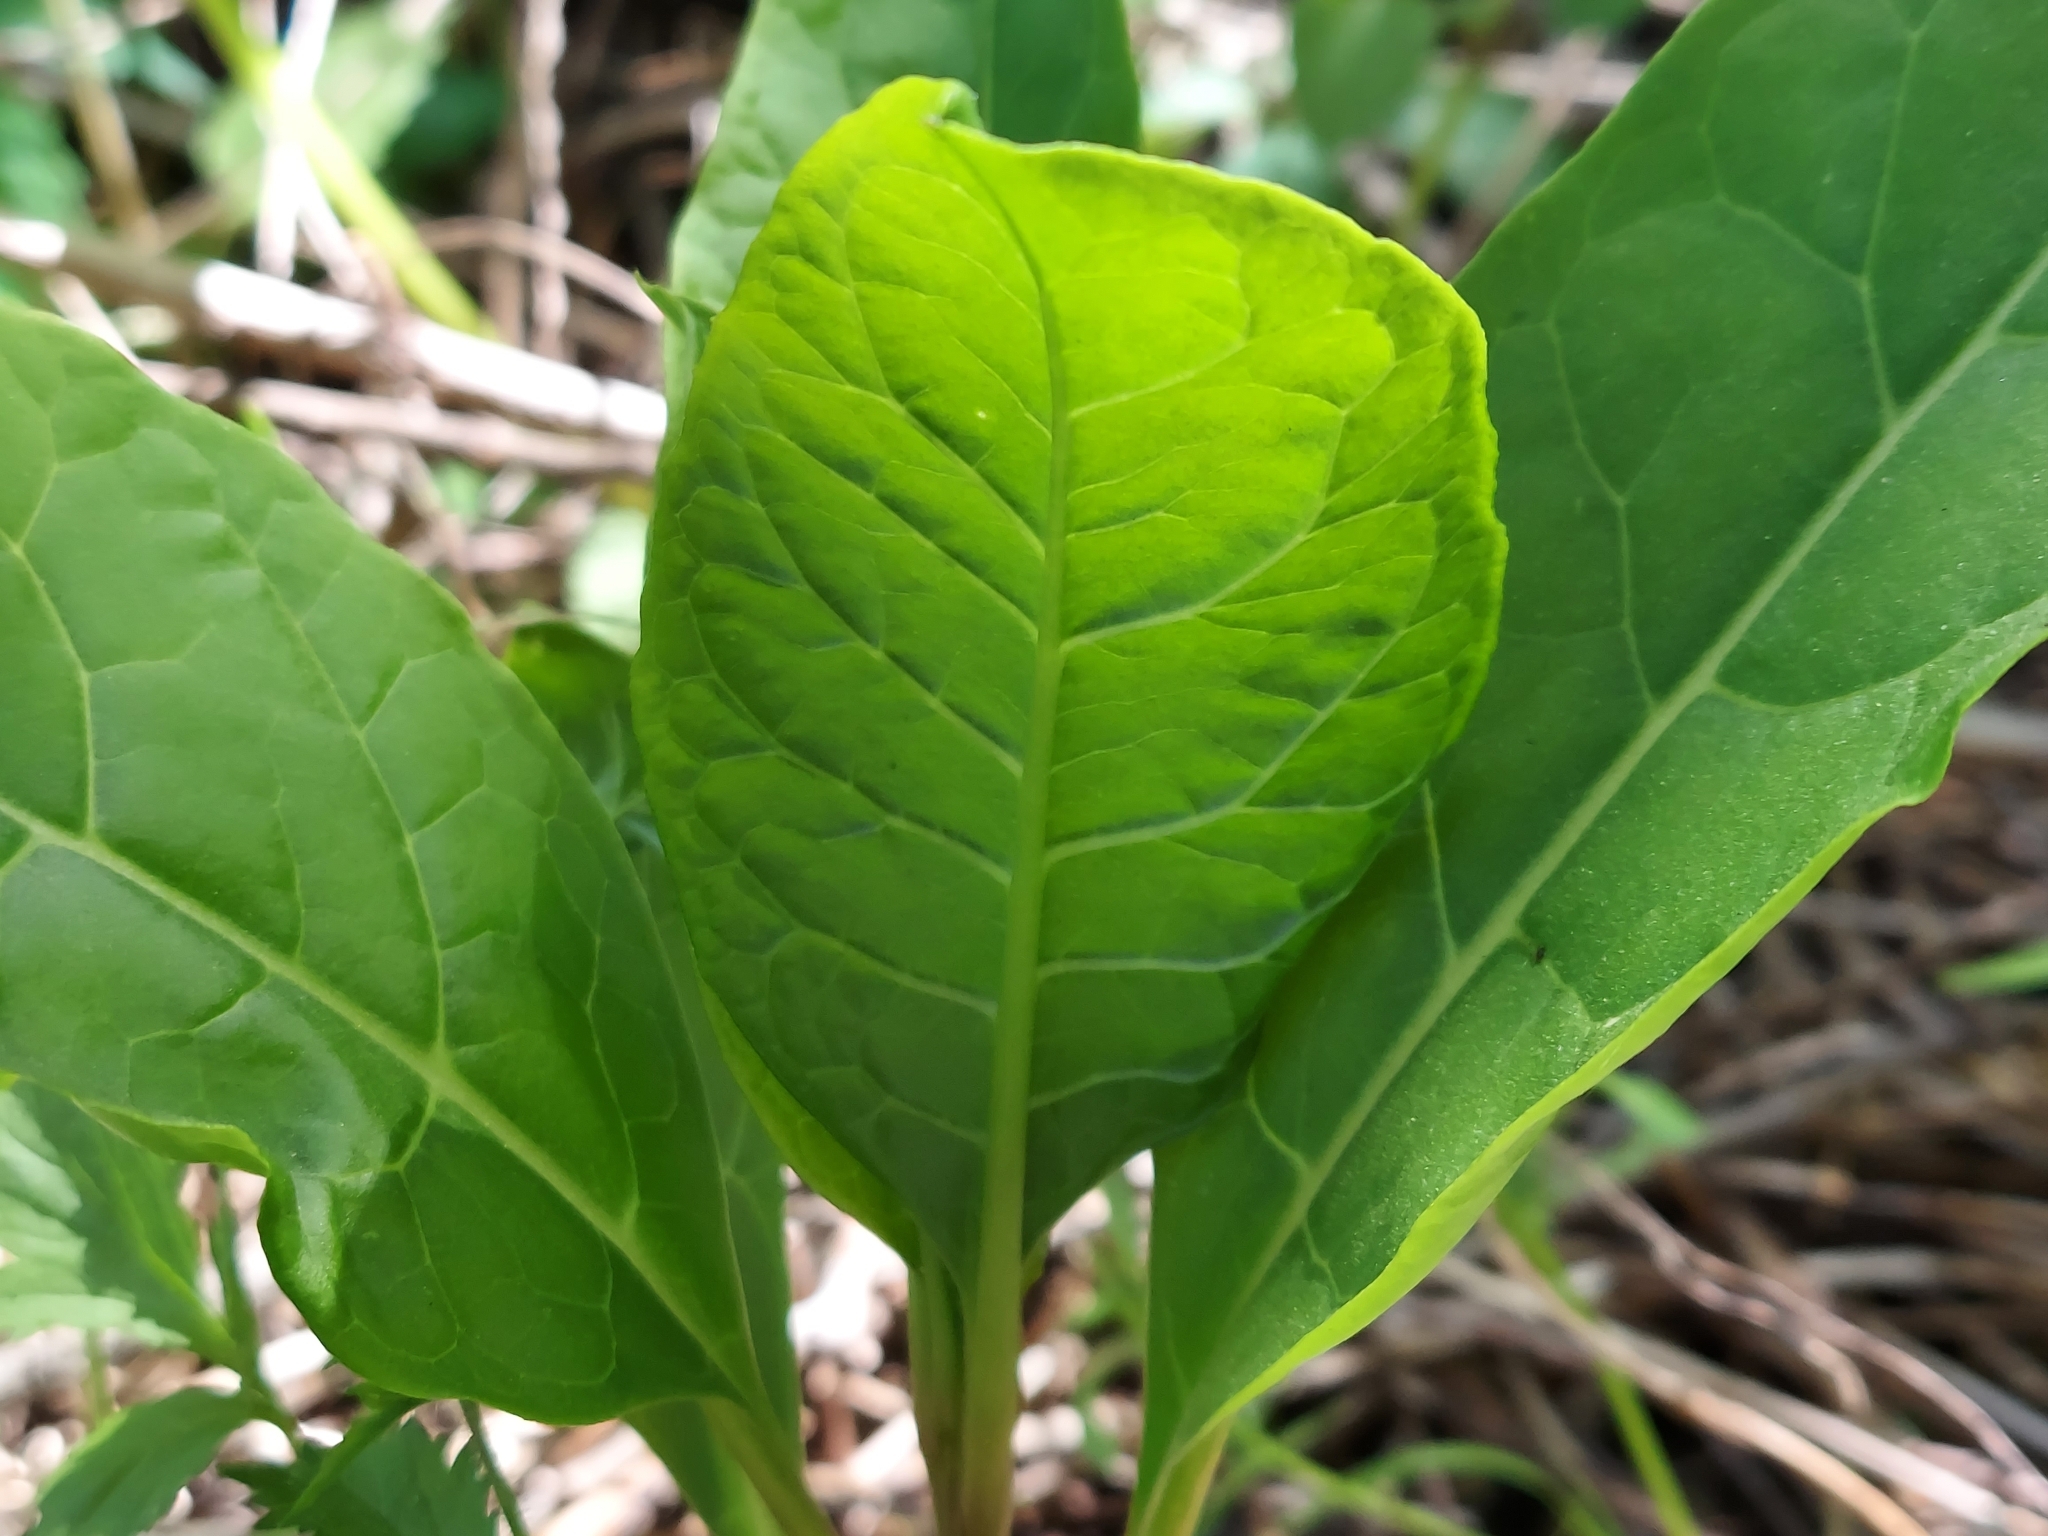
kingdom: Plantae
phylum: Tracheophyta
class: Magnoliopsida
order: Caryophyllales
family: Phytolaccaceae
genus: Phytolacca
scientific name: Phytolacca americana
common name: American pokeweed
